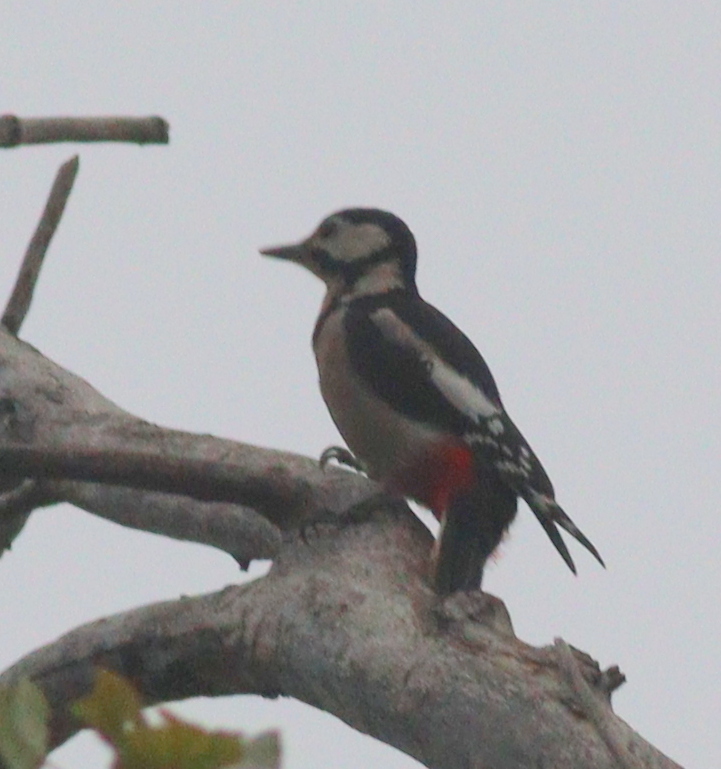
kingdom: Animalia
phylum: Chordata
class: Aves
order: Piciformes
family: Picidae
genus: Dendrocopos
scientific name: Dendrocopos major
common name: Great spotted woodpecker
